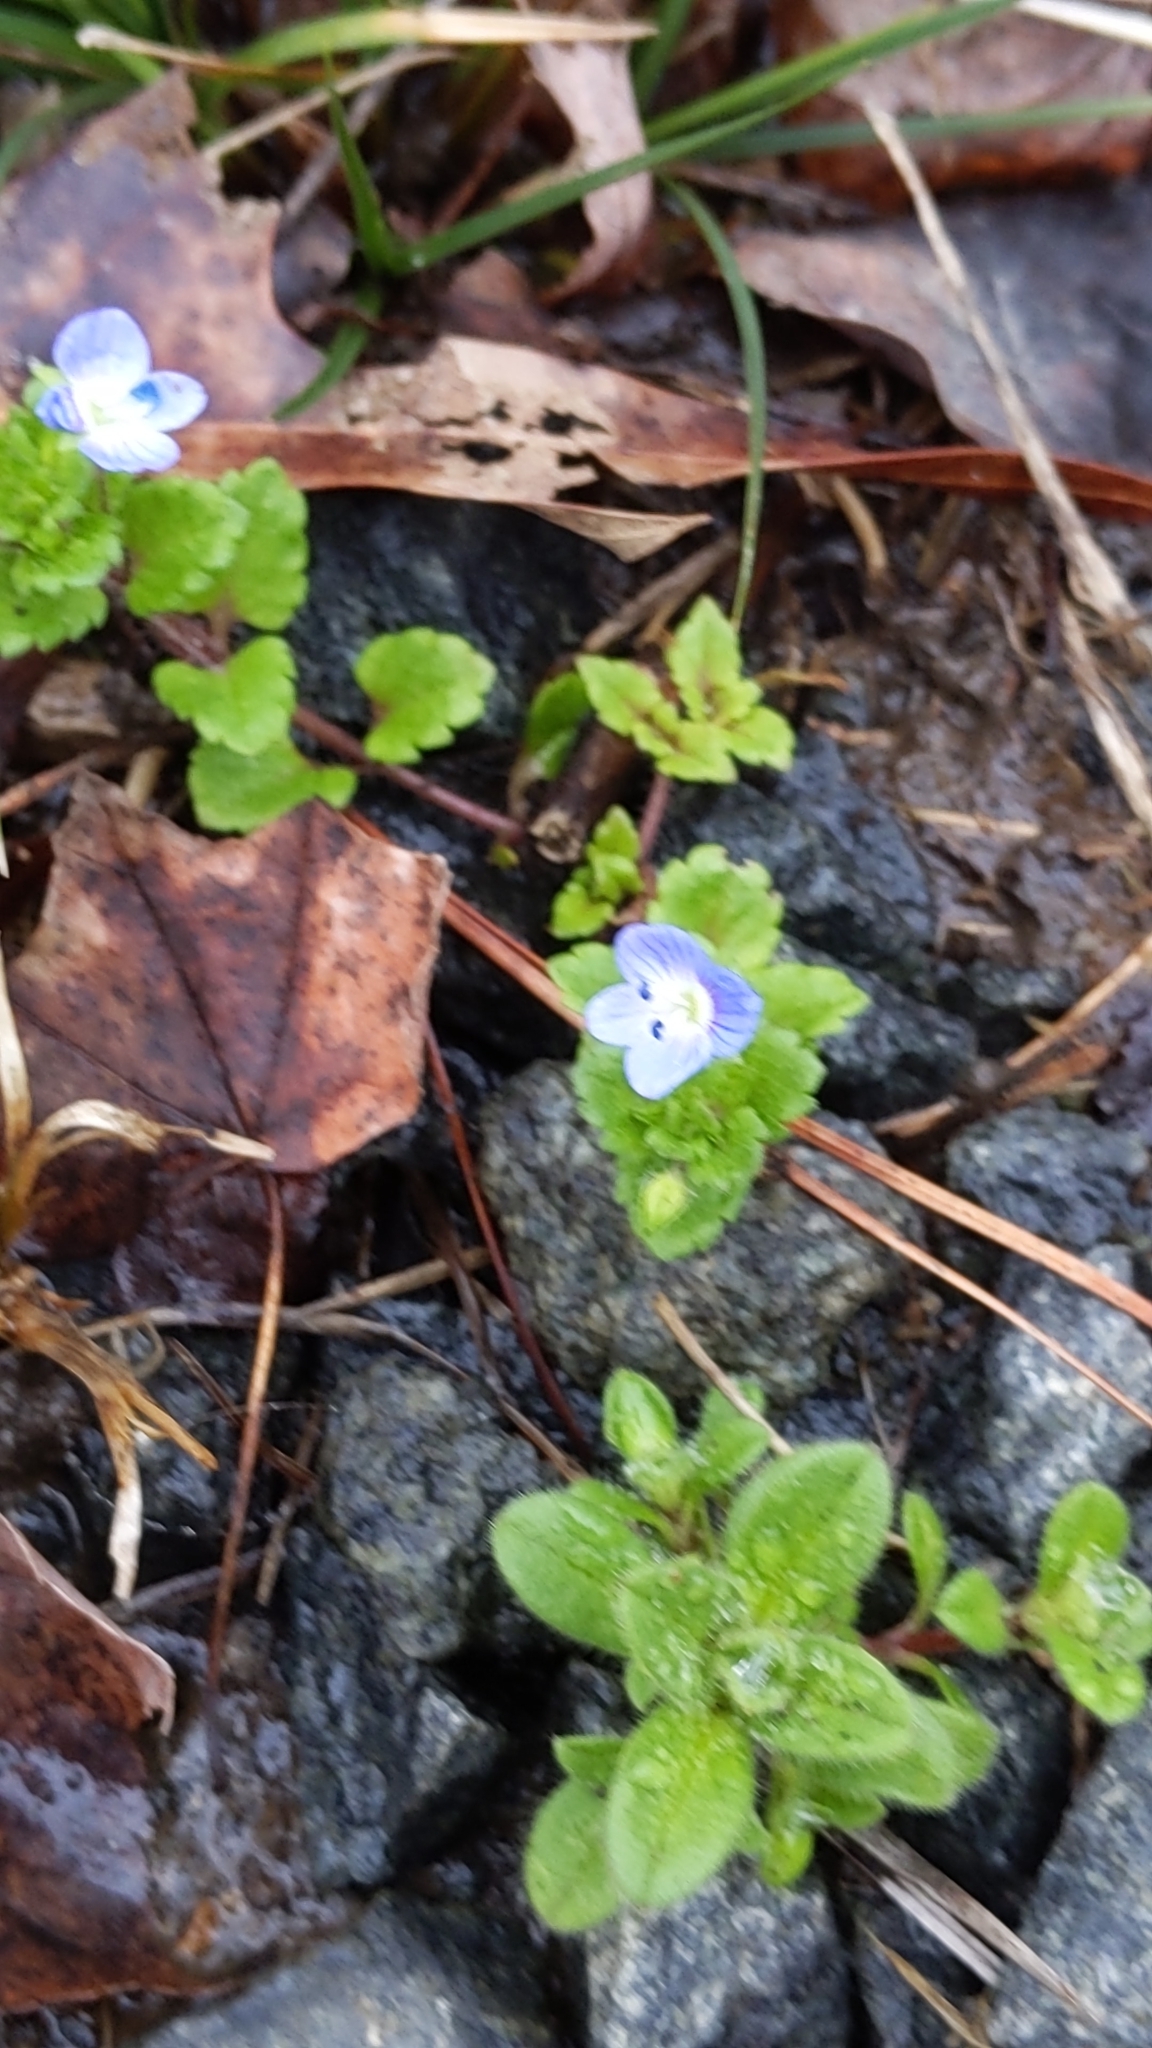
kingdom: Plantae
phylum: Tracheophyta
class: Magnoliopsida
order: Lamiales
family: Plantaginaceae
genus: Veronica
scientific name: Veronica persica
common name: Common field-speedwell
